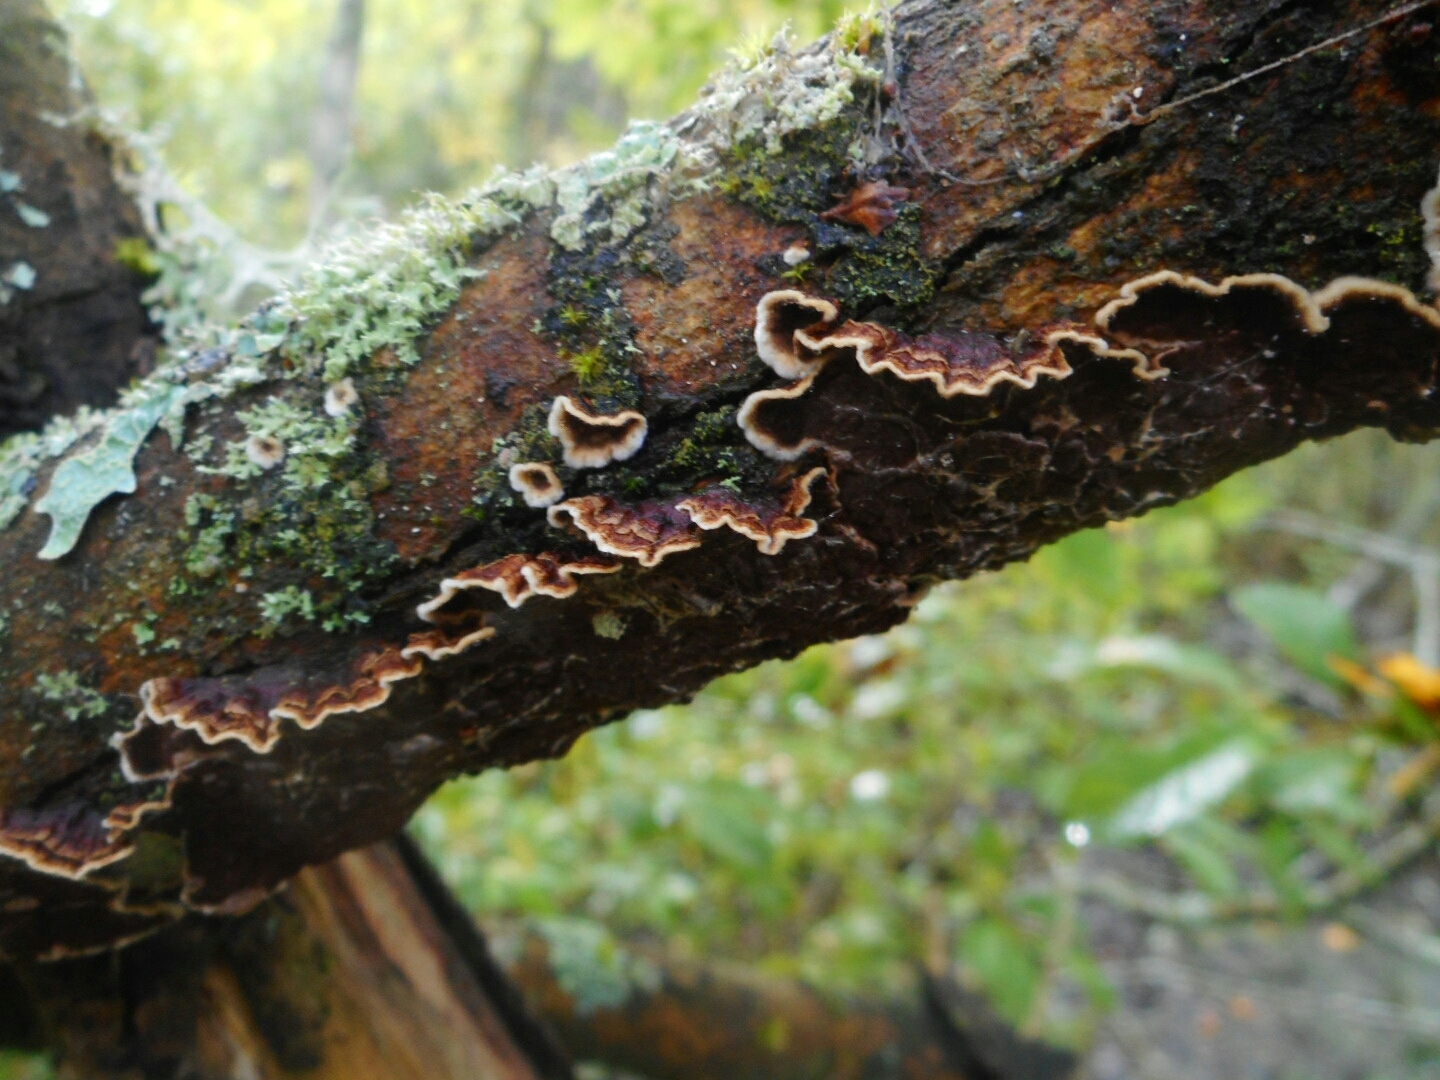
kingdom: Fungi
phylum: Basidiomycota
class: Agaricomycetes
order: Hymenochaetales
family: Hymenochaetaceae
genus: Hydnoporia
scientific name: Hydnoporia tabacina
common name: Willow glue
